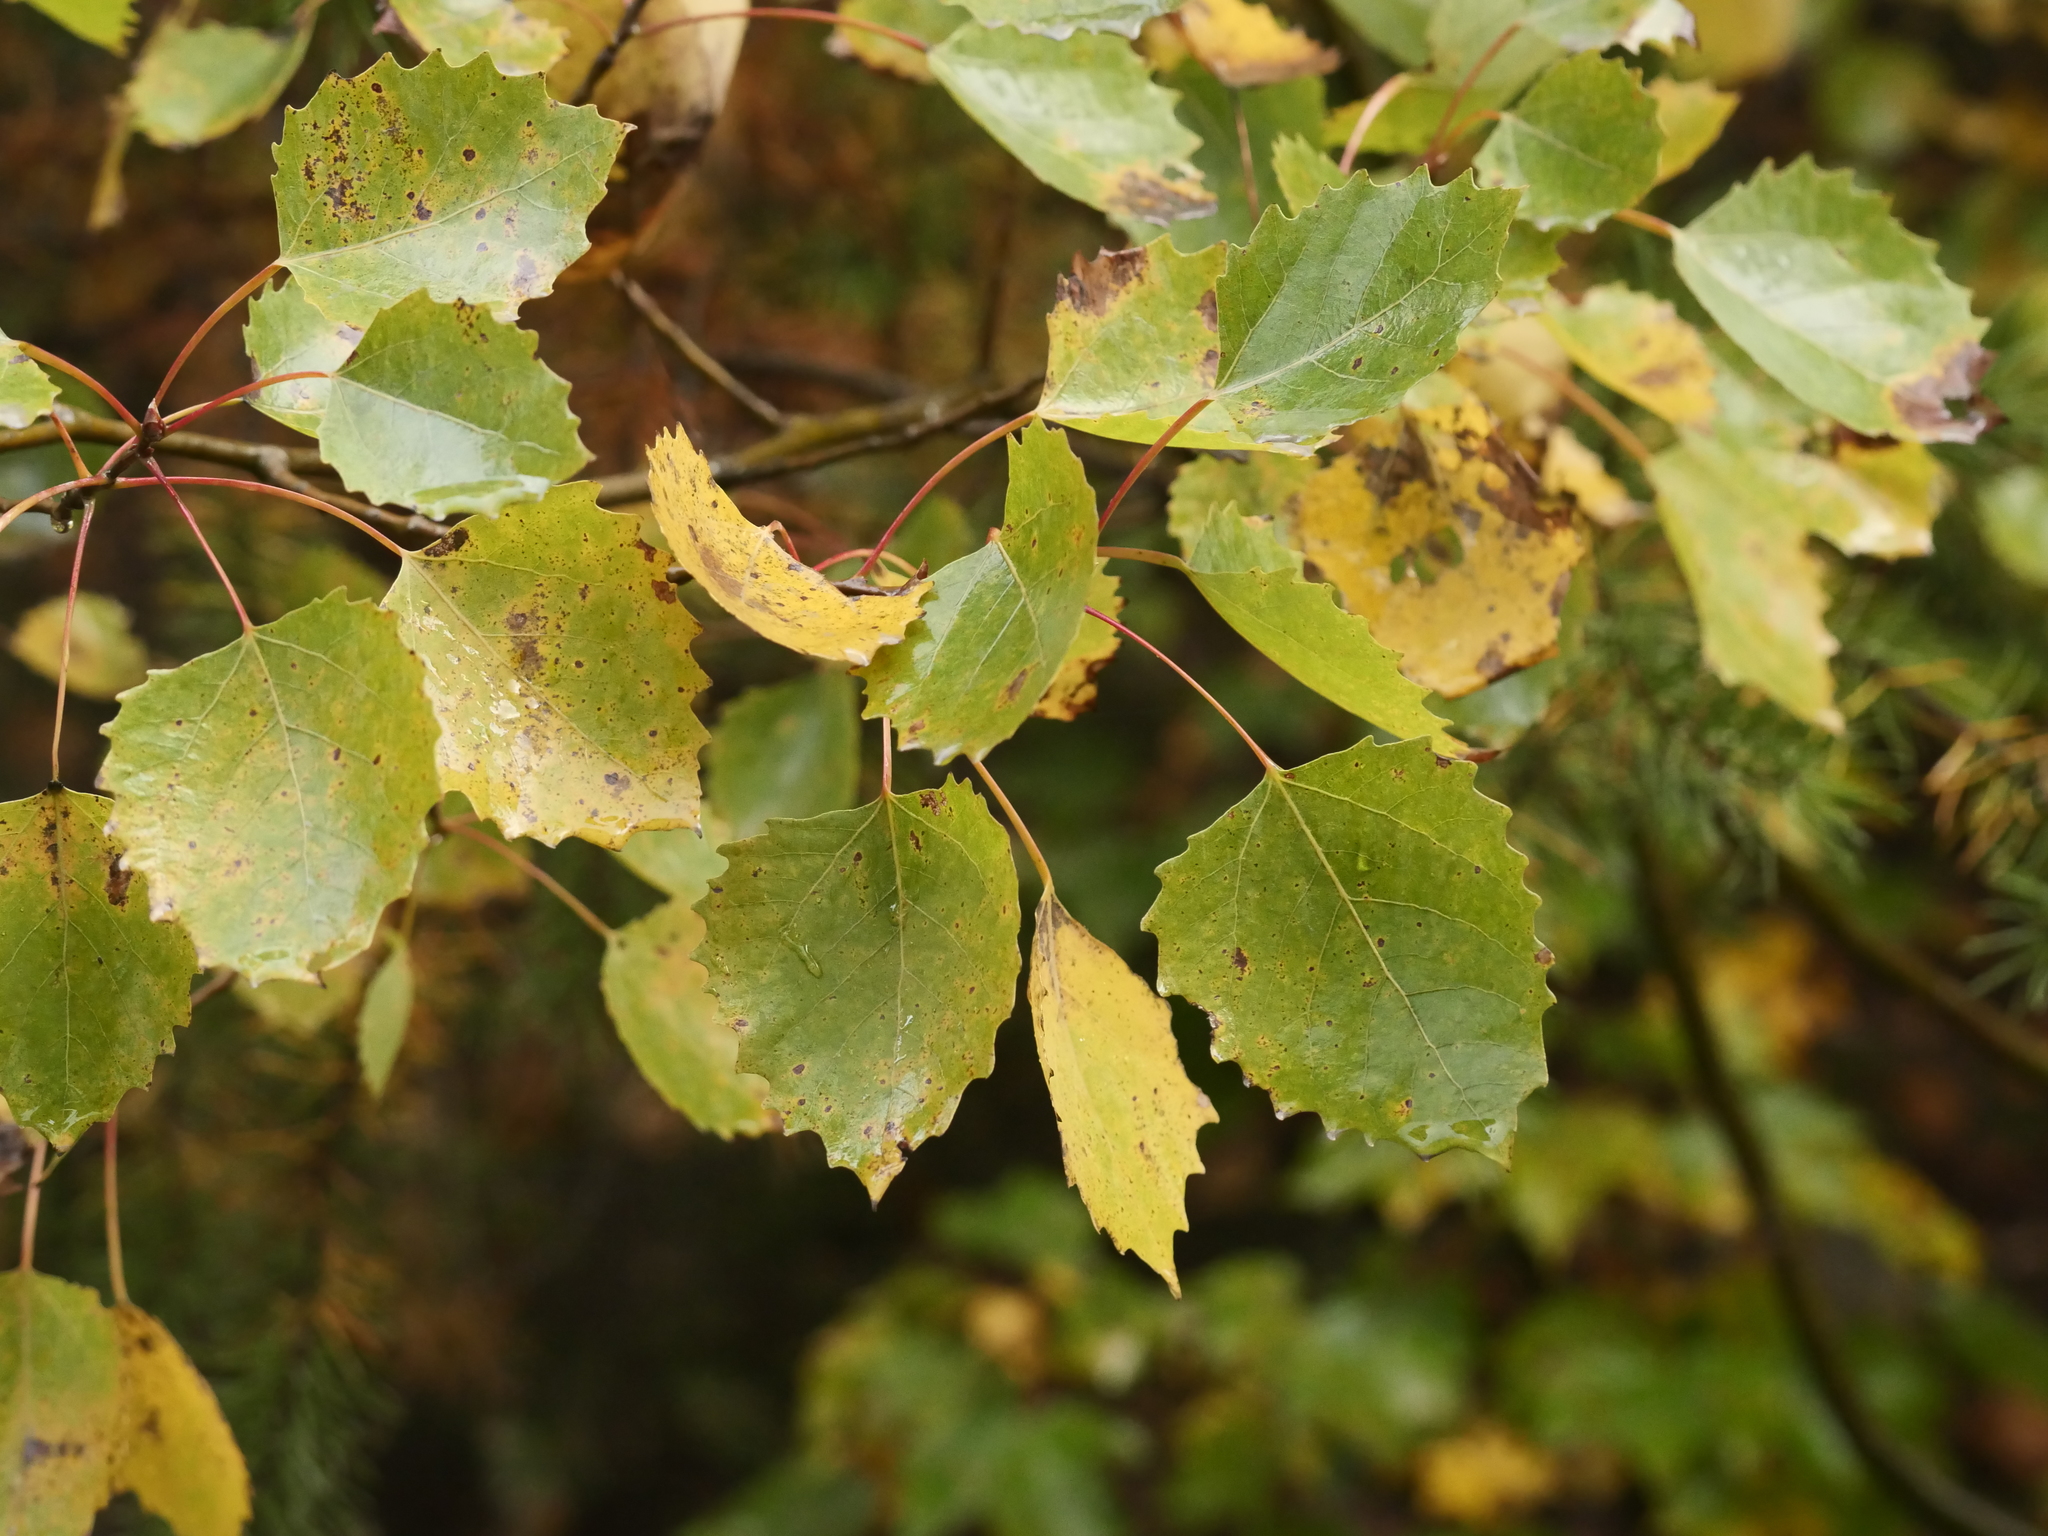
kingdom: Plantae
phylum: Tracheophyta
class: Magnoliopsida
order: Malpighiales
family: Salicaceae
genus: Populus
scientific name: Populus grandidentata
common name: Bigtooth aspen
